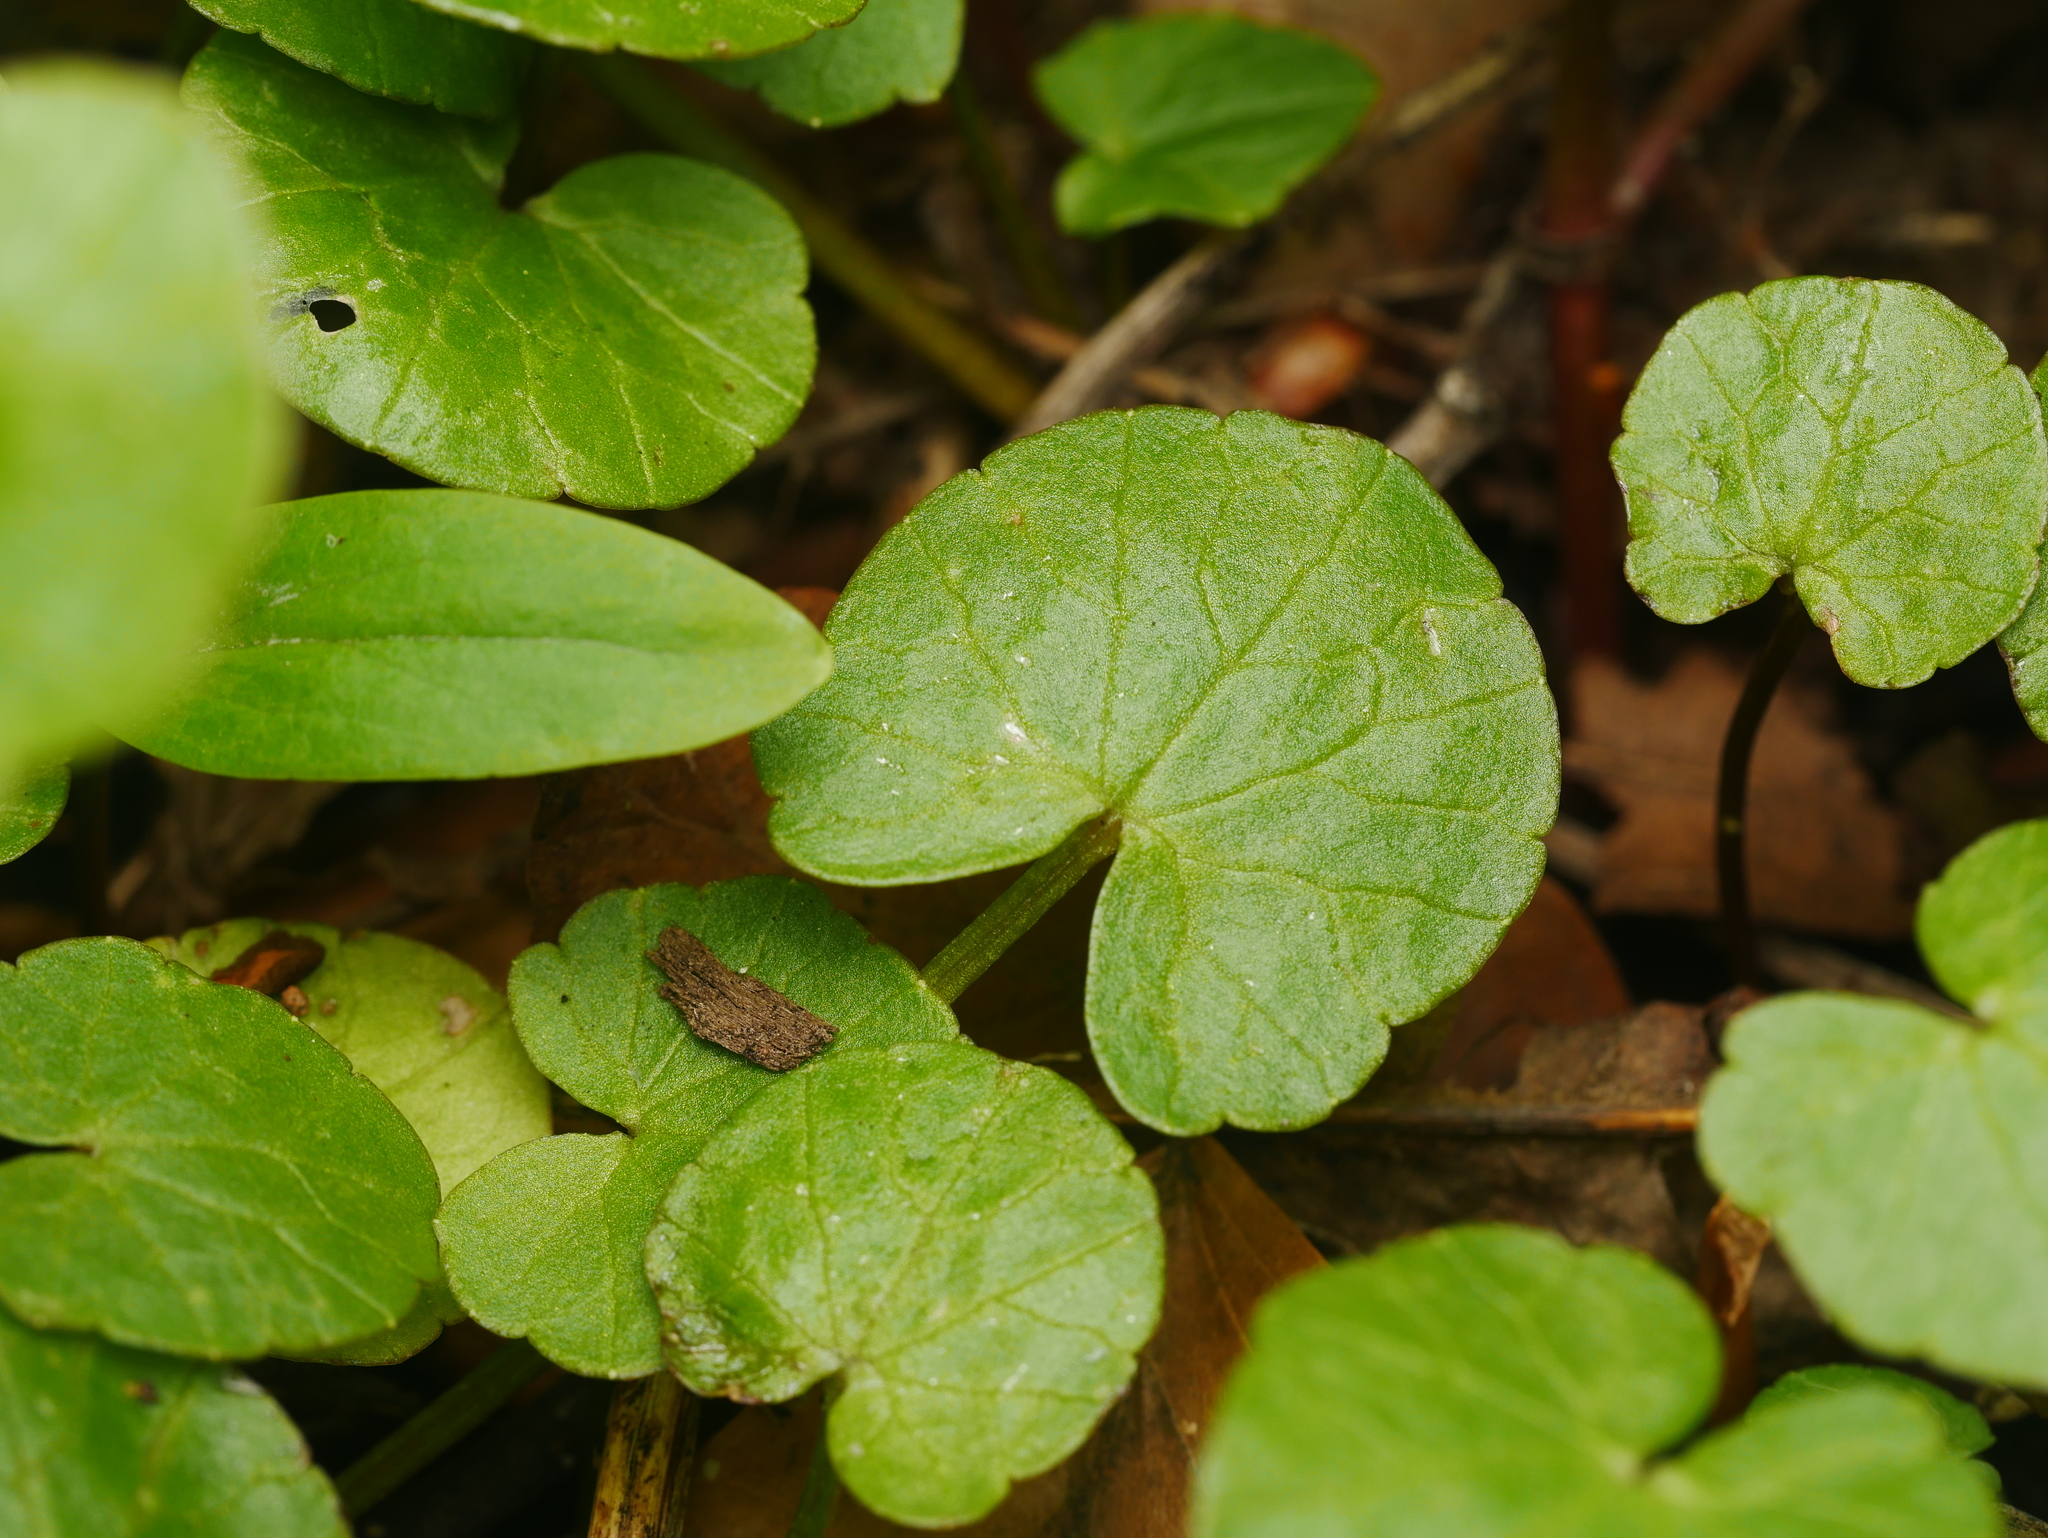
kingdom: Plantae
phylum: Tracheophyta
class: Magnoliopsida
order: Ranunculales
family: Ranunculaceae
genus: Ficaria
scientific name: Ficaria verna
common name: Lesser celandine
